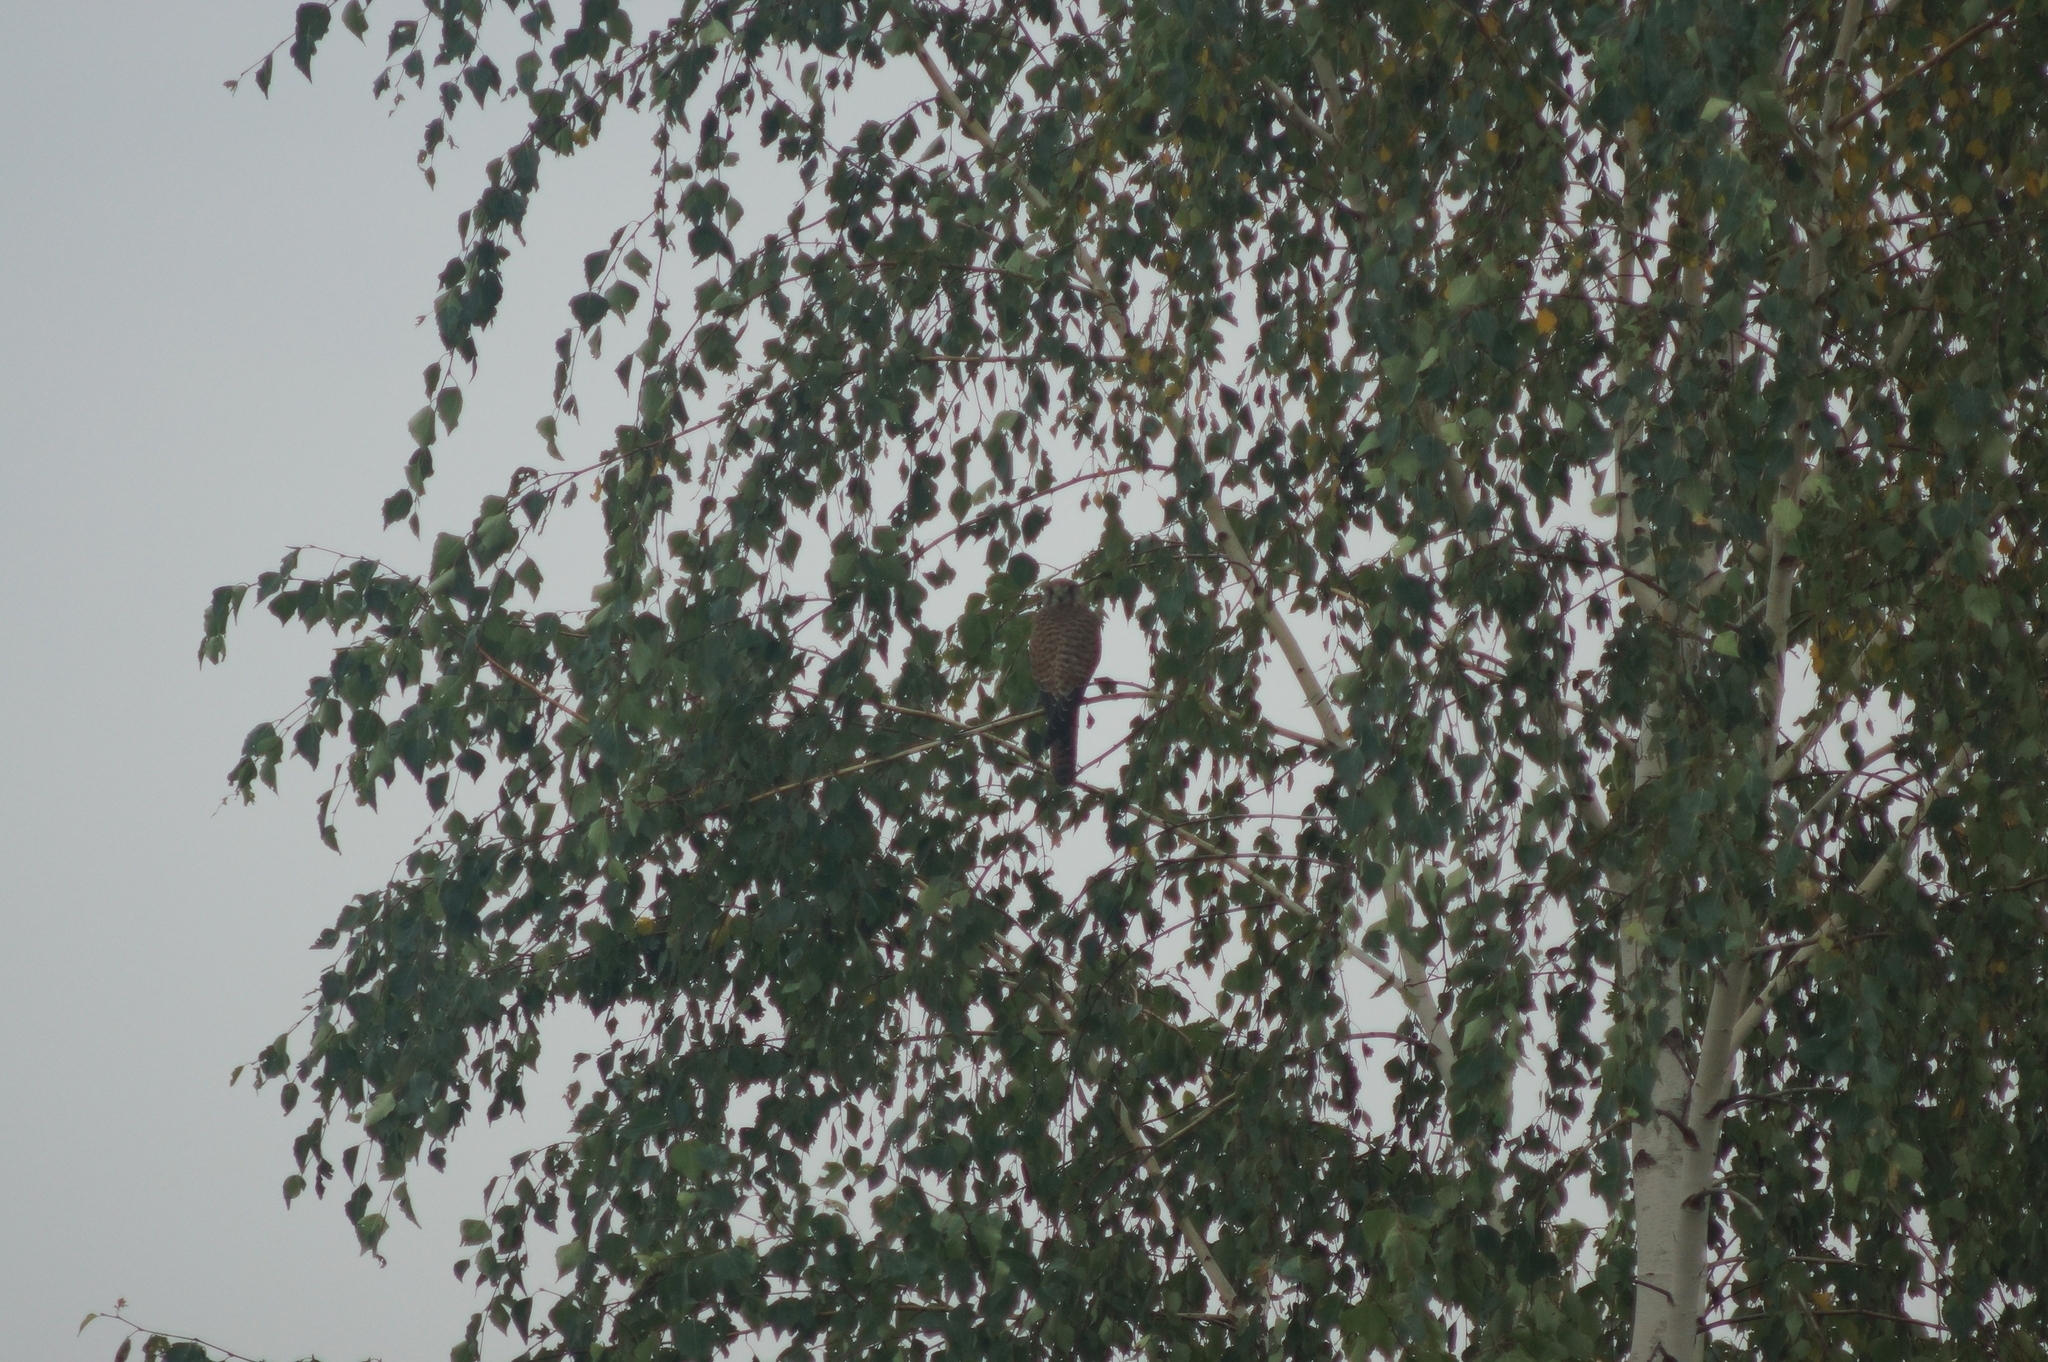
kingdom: Animalia
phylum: Chordata
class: Aves
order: Falconiformes
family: Falconidae
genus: Falco
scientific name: Falco tinnunculus
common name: Common kestrel
